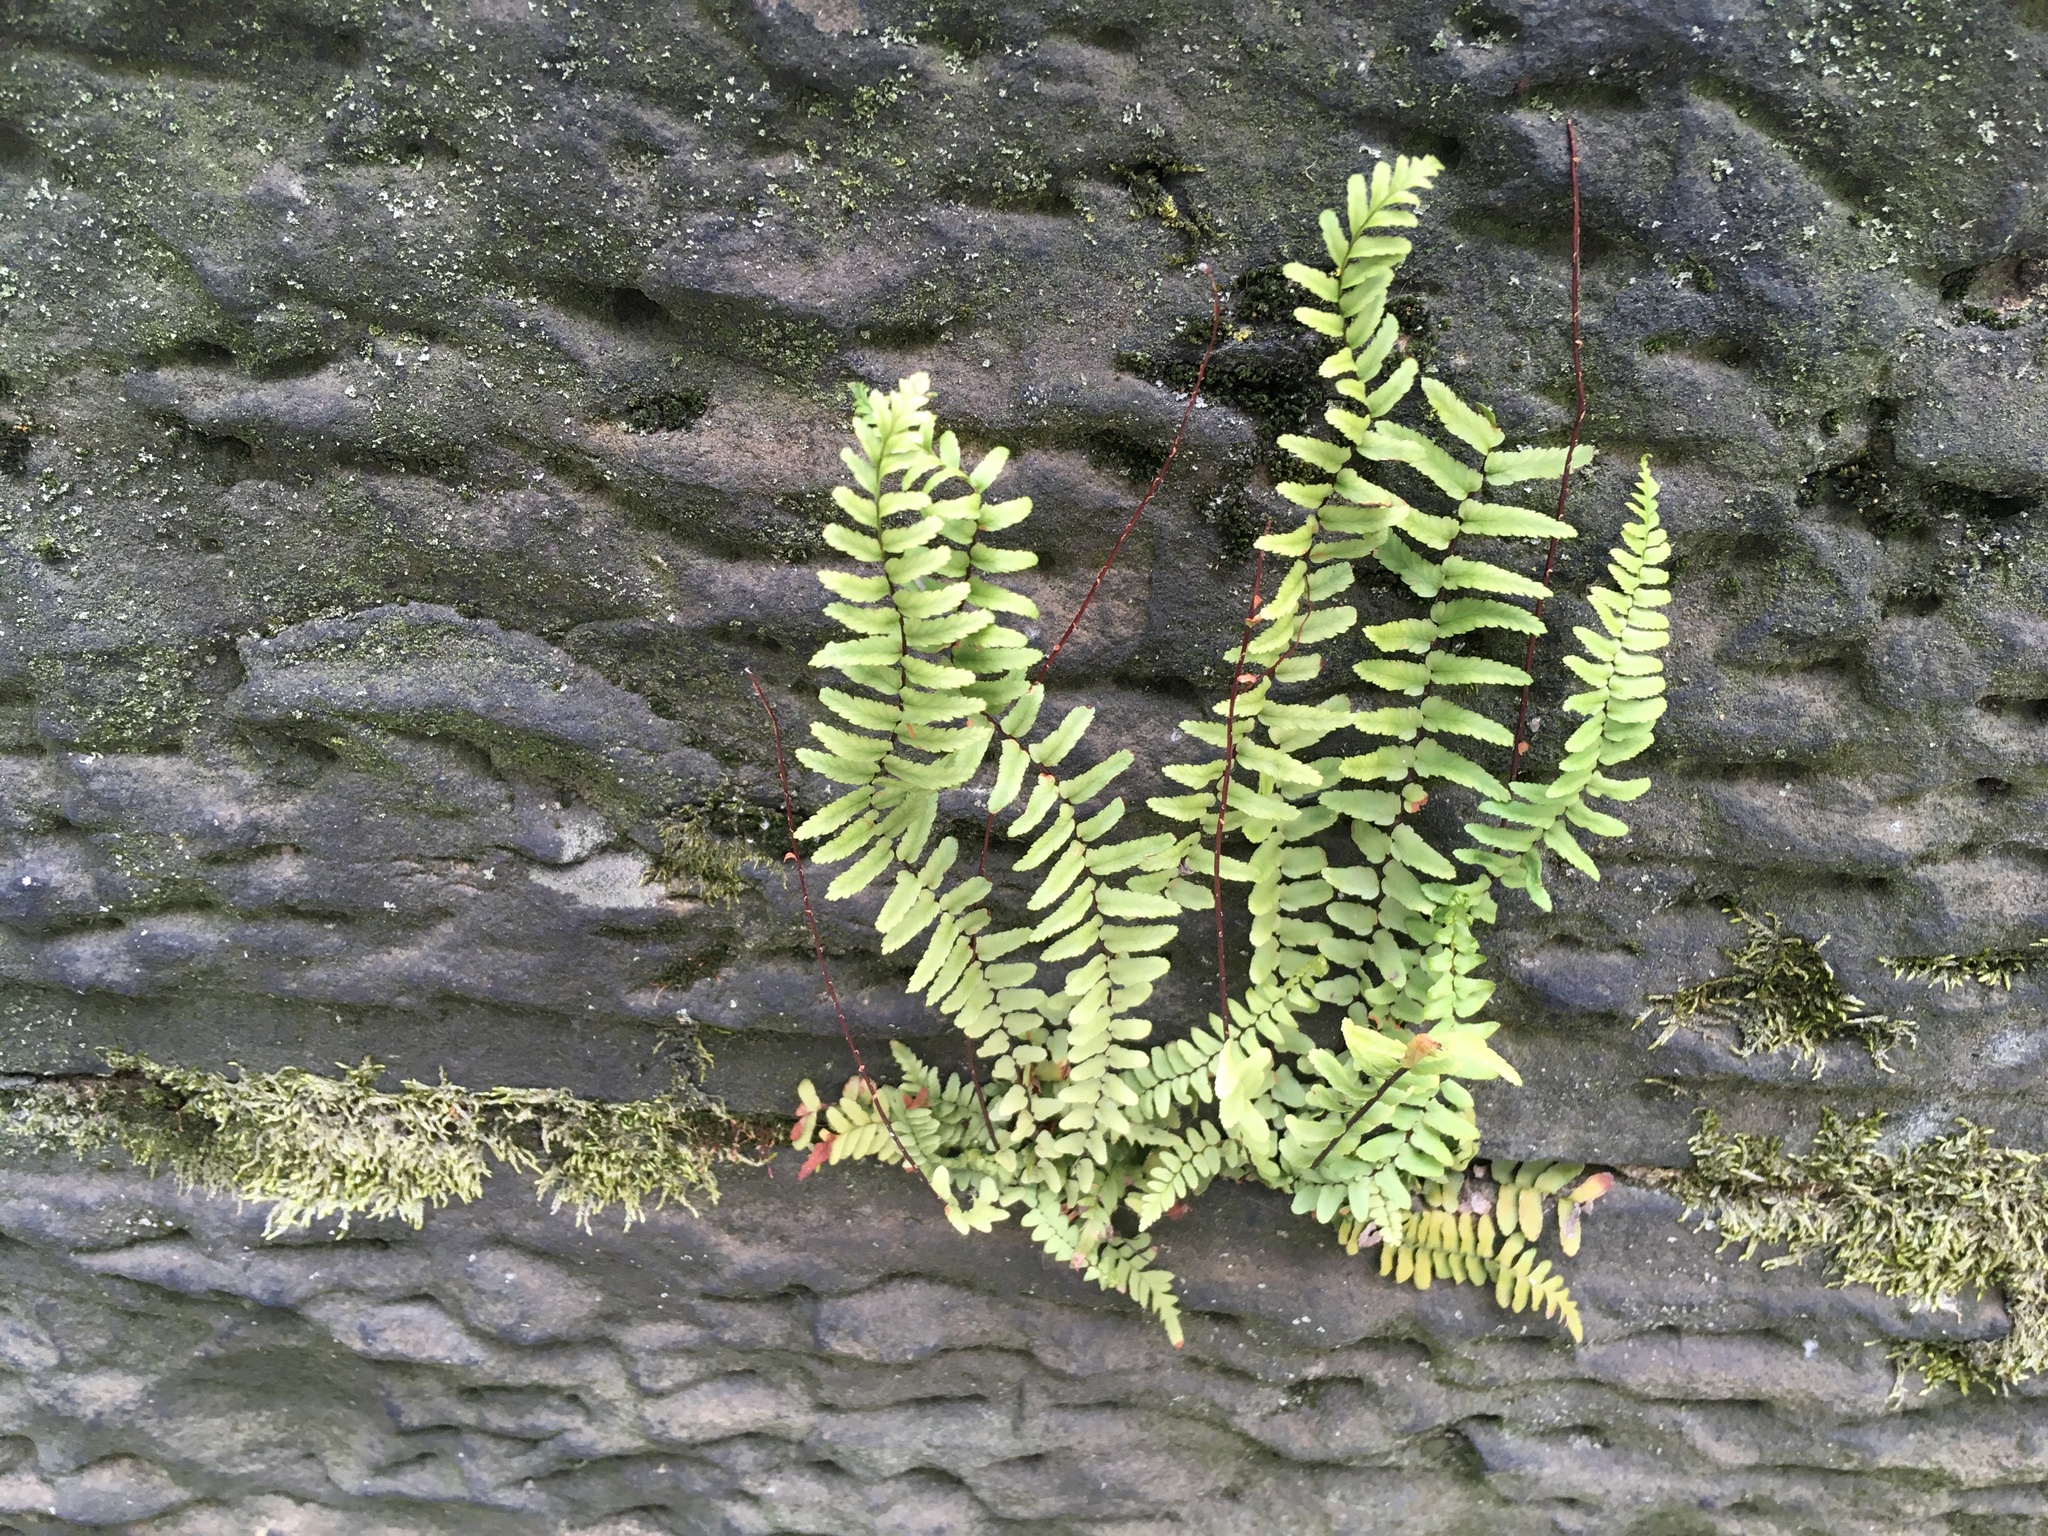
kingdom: Plantae
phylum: Tracheophyta
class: Polypodiopsida
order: Polypodiales
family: Aspleniaceae
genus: Asplenium
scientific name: Asplenium platyneuron
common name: Ebony spleenwort
